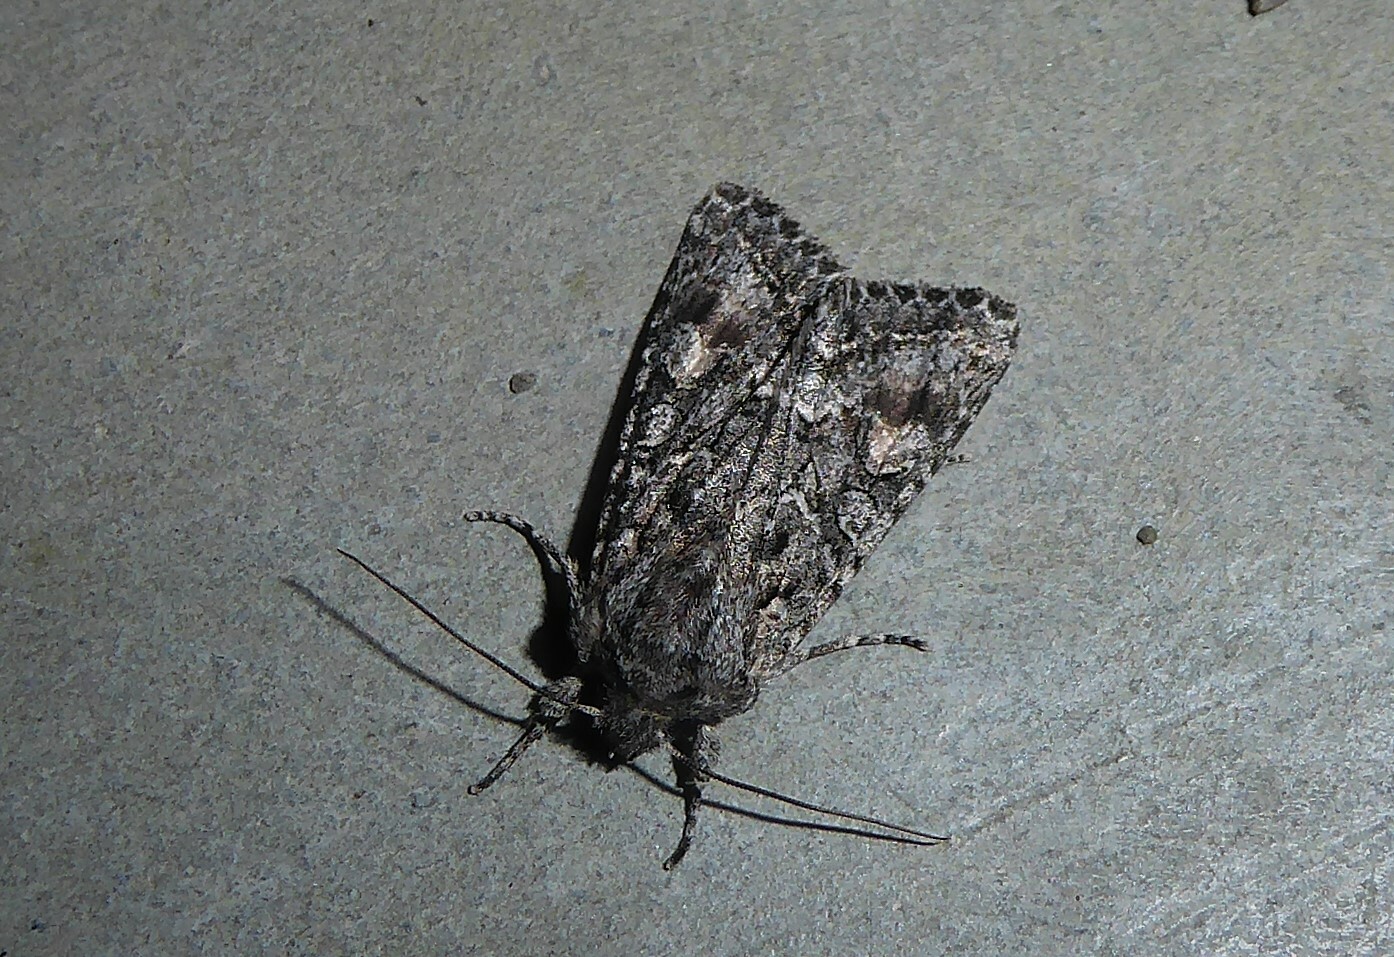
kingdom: Animalia
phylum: Arthropoda
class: Insecta
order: Lepidoptera
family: Noctuidae
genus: Ichneutica
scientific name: Ichneutica mutans
